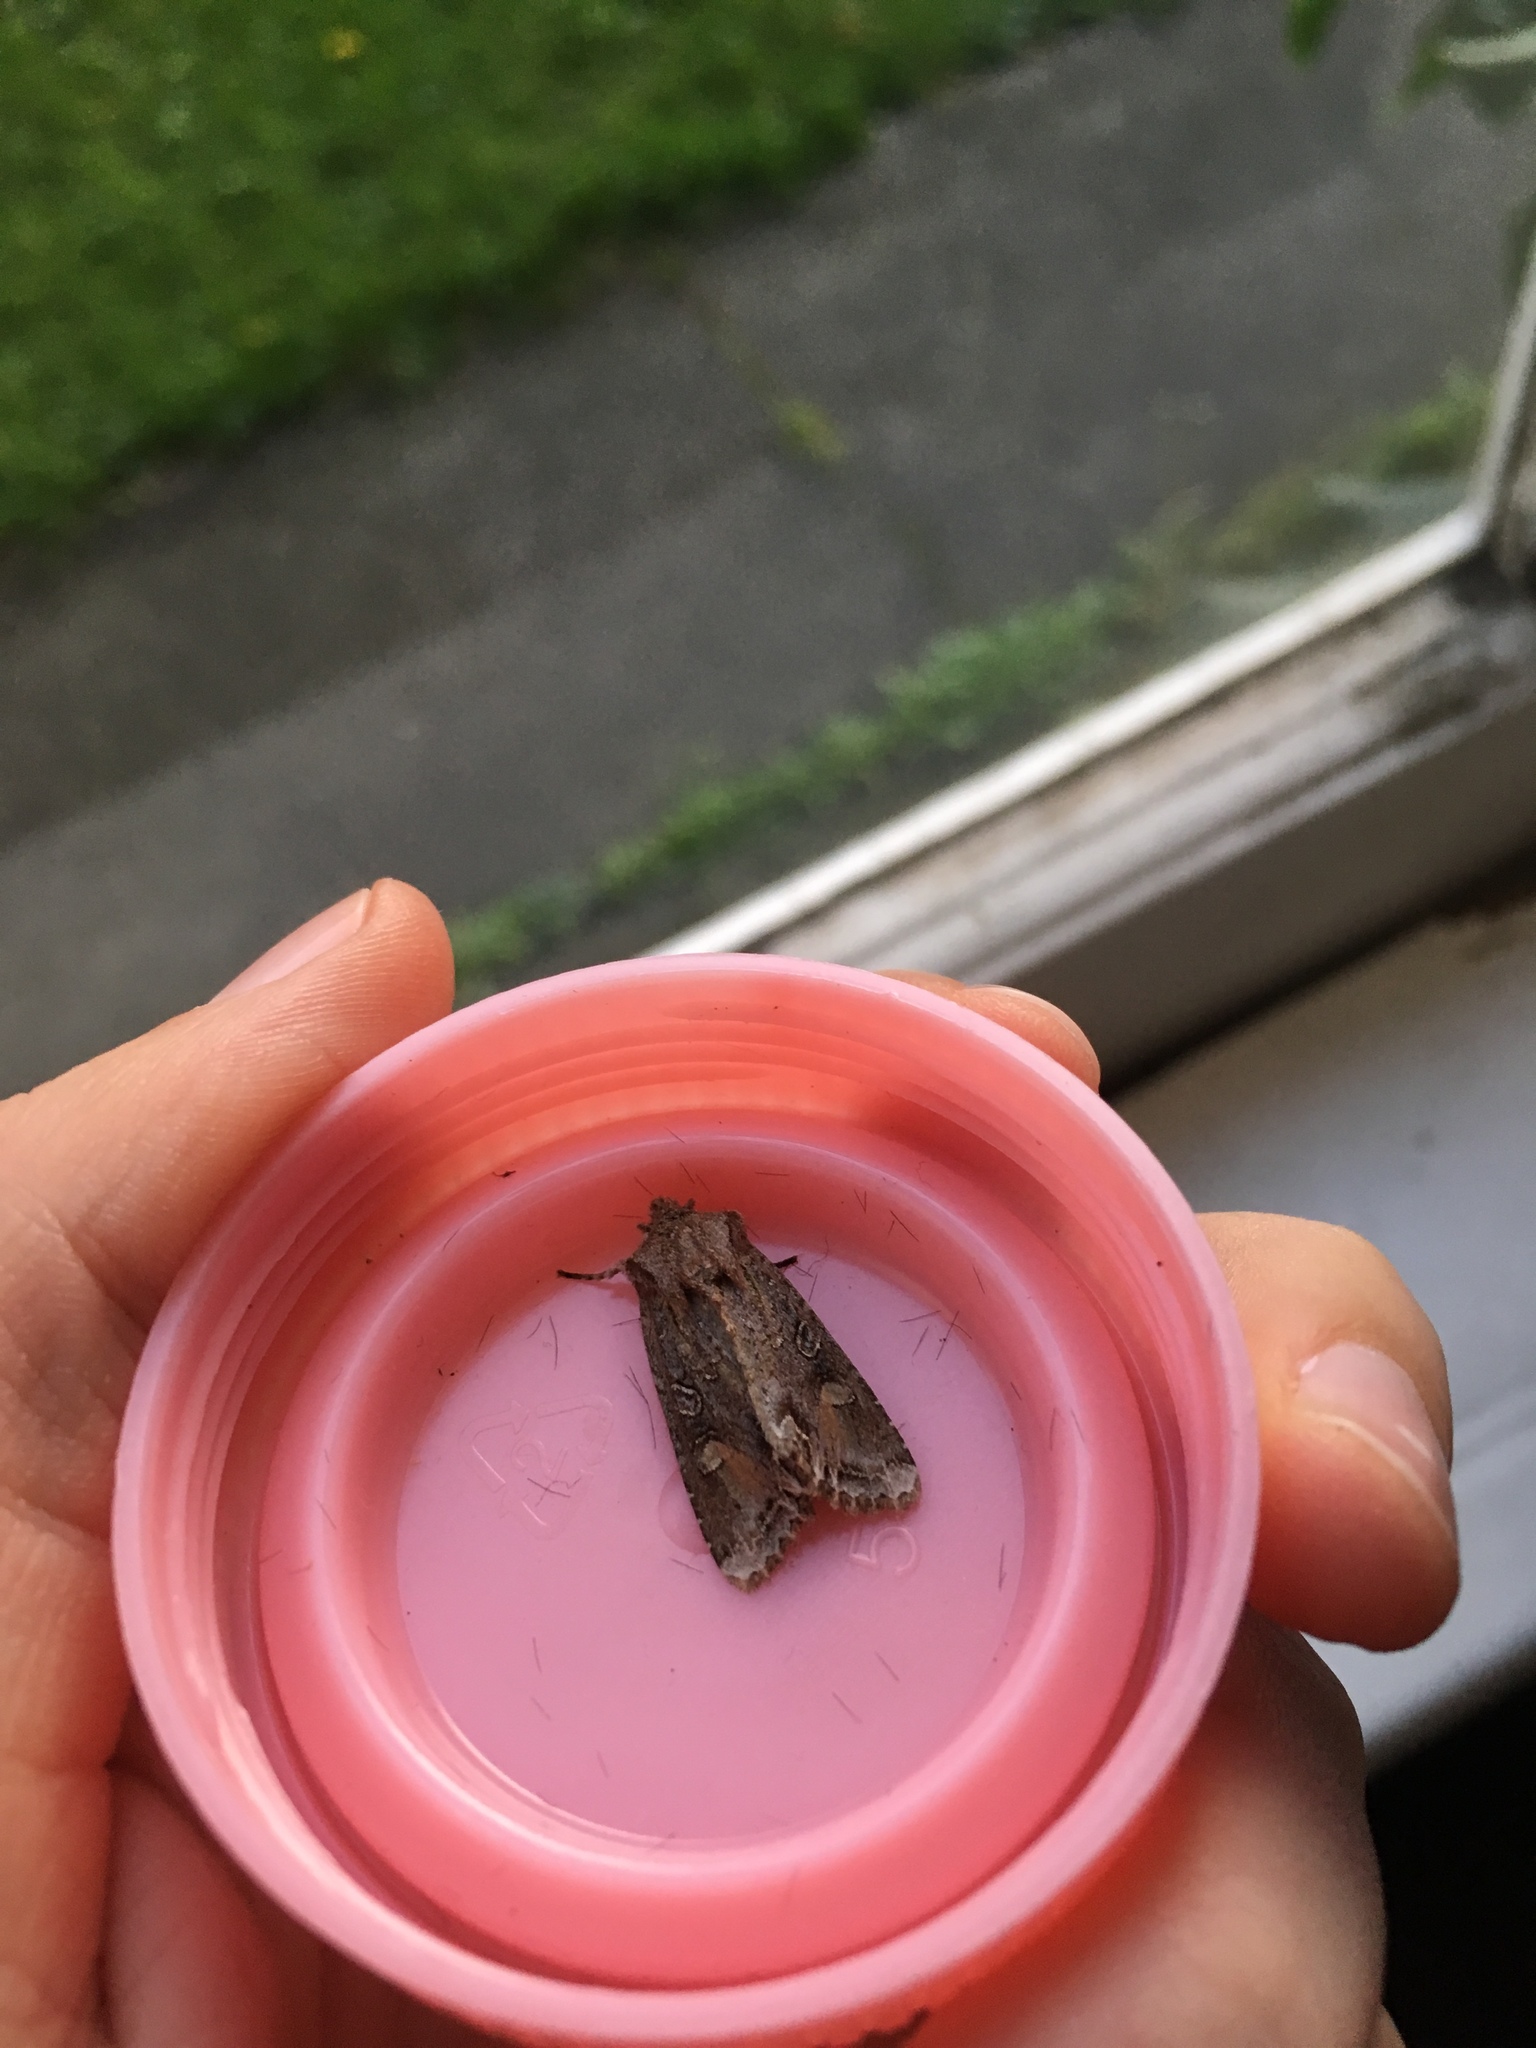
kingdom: Animalia
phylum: Arthropoda
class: Insecta
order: Lepidoptera
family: Noctuidae
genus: Ichneutica
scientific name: Ichneutica
